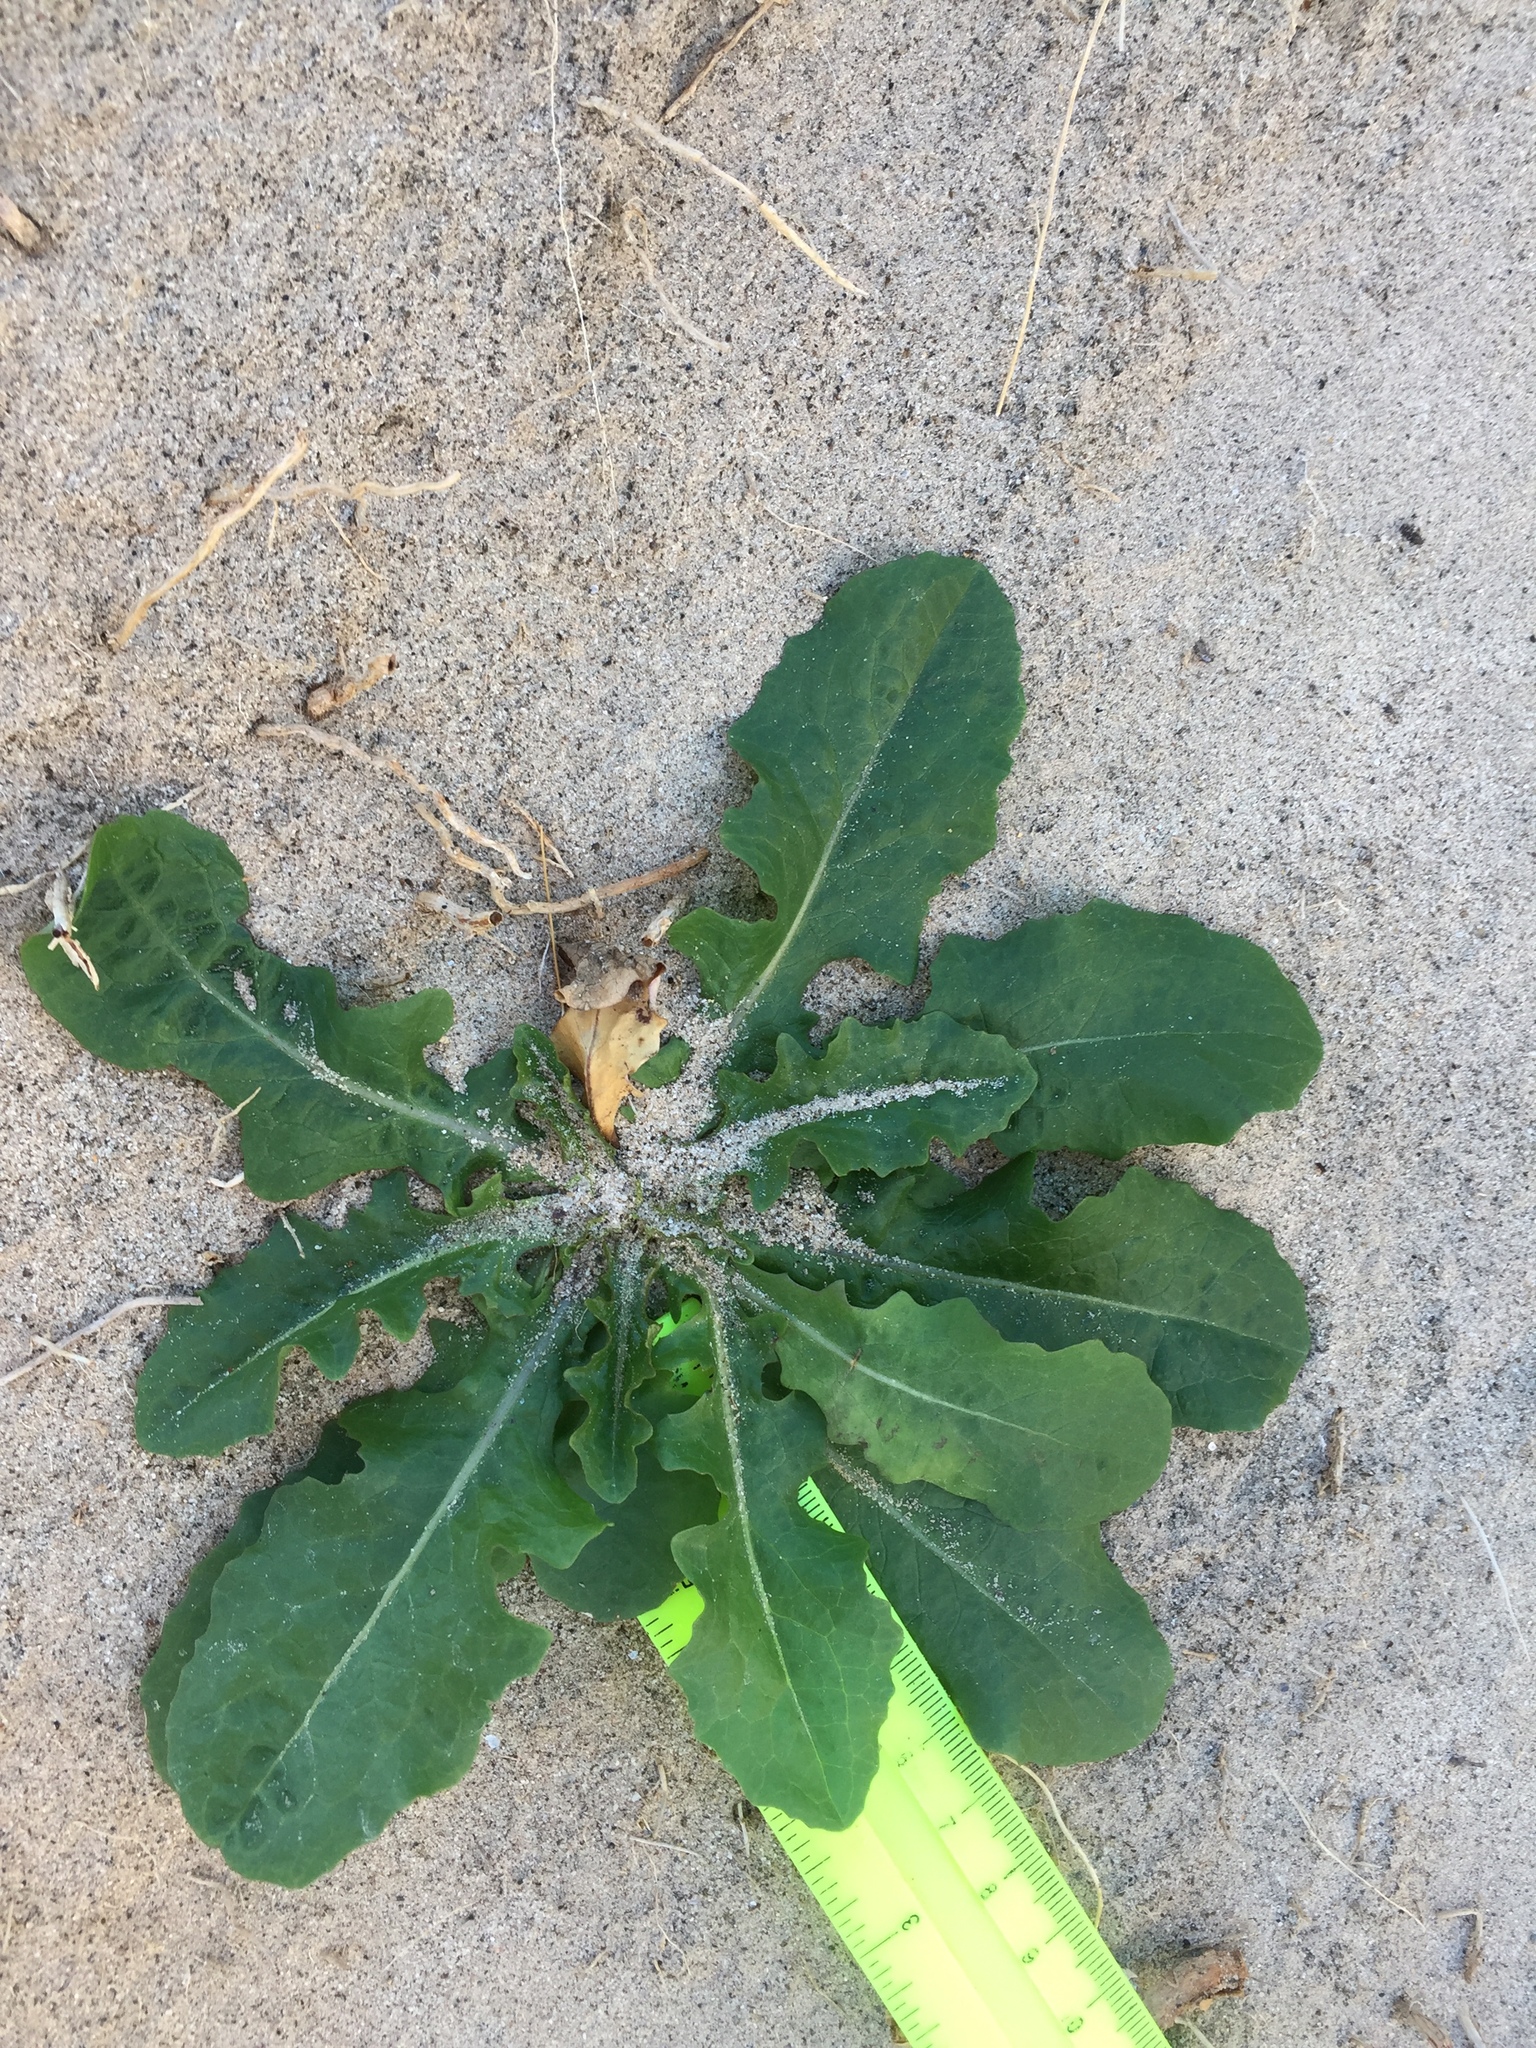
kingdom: Plantae
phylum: Tracheophyta
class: Magnoliopsida
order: Asterales
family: Asteraceae
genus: Sonchus
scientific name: Sonchus oleraceus
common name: Common sowthistle
